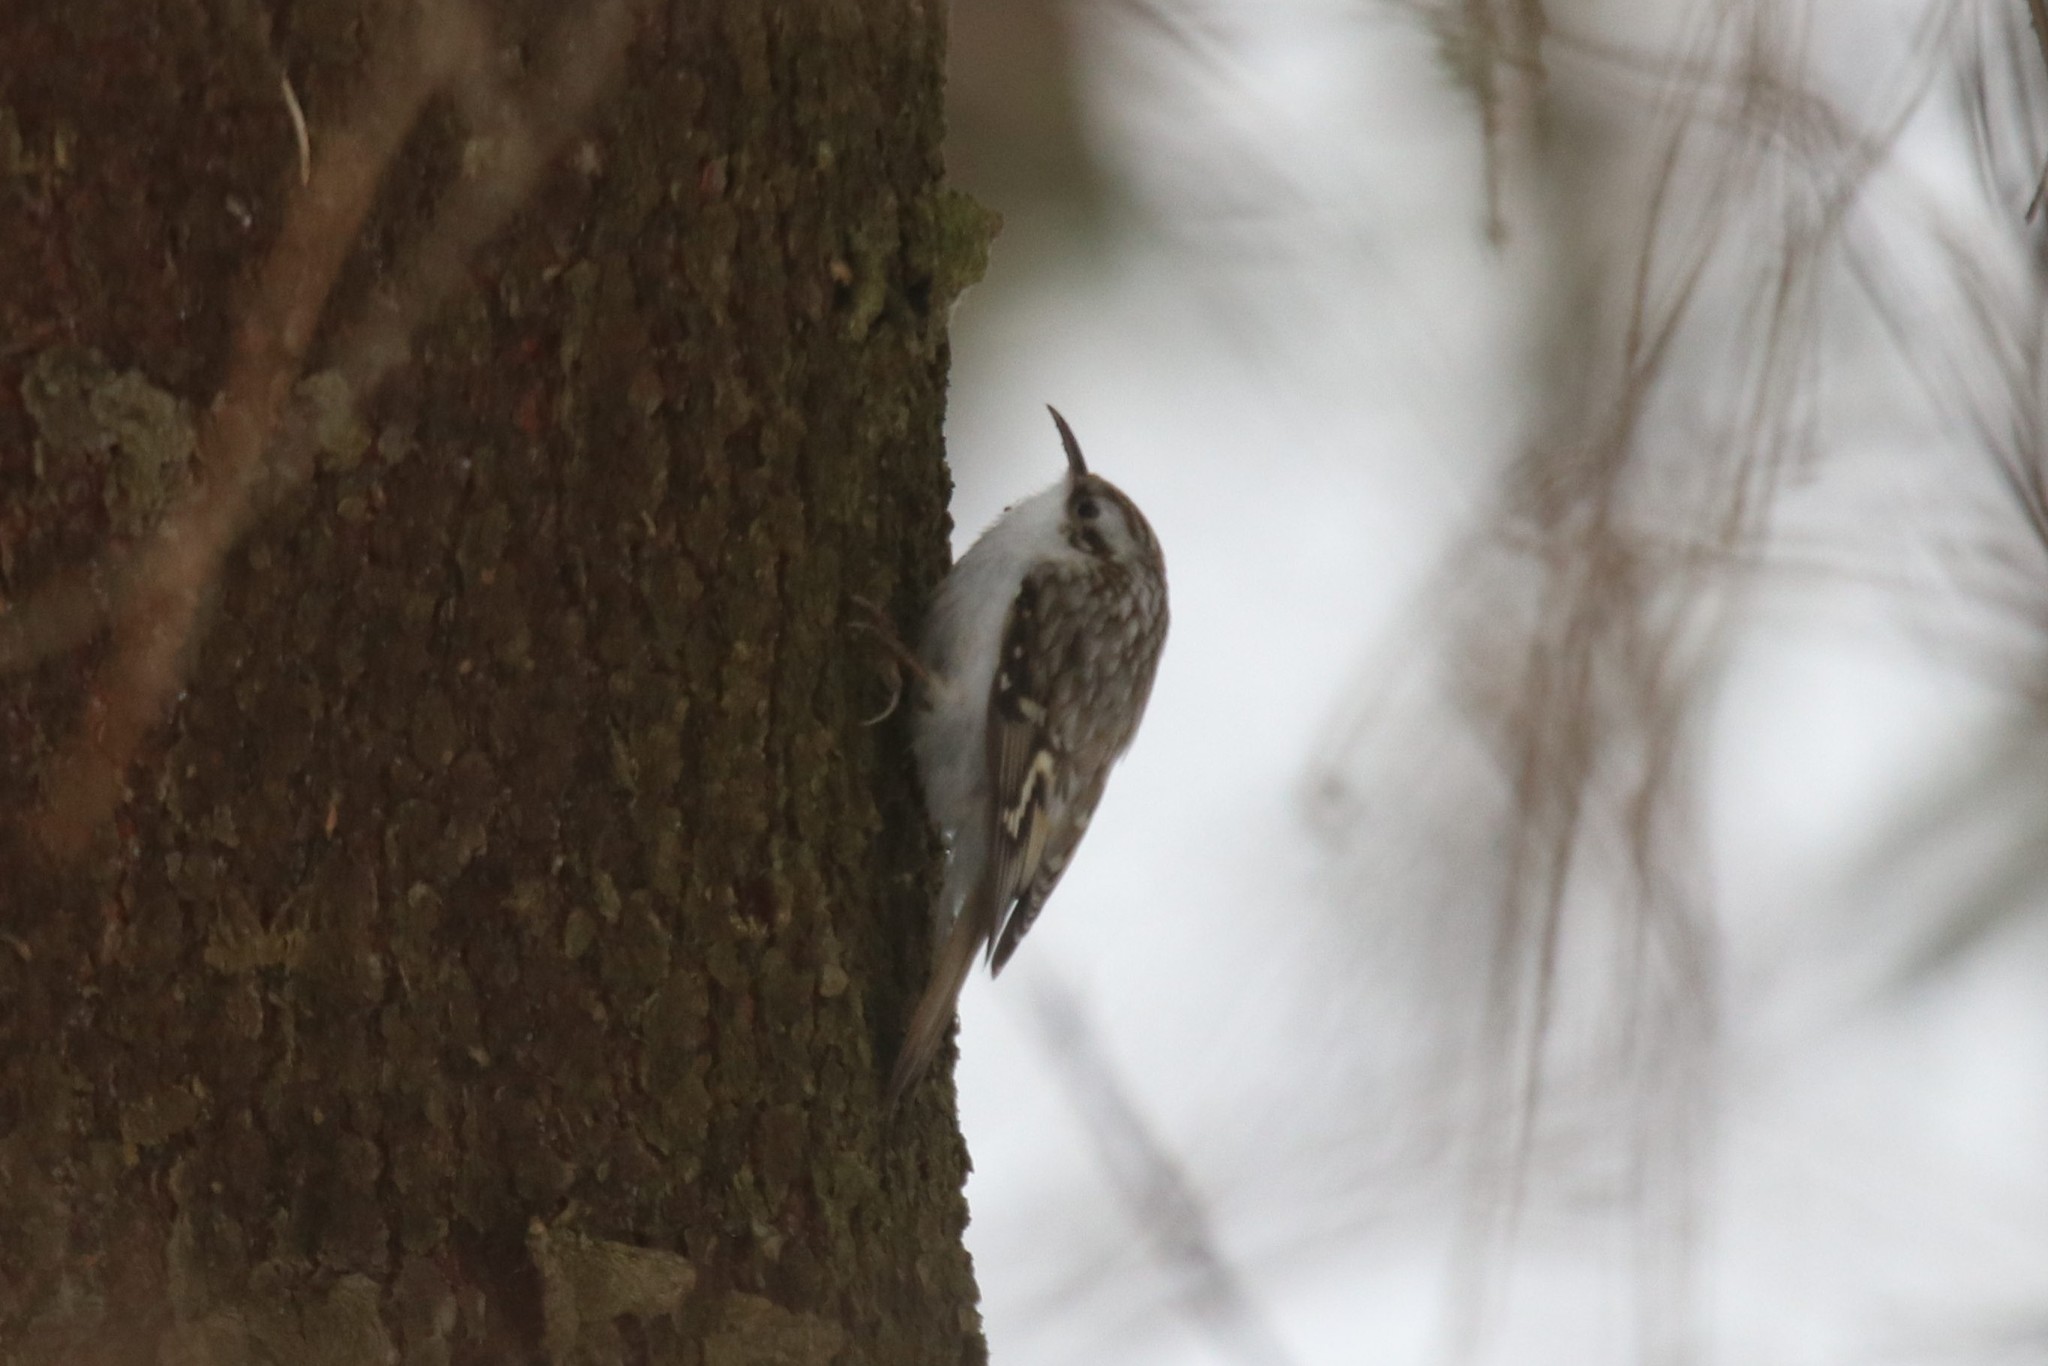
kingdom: Animalia
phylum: Chordata
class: Aves
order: Passeriformes
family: Certhiidae
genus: Certhia
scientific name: Certhia familiaris
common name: Eurasian treecreeper
